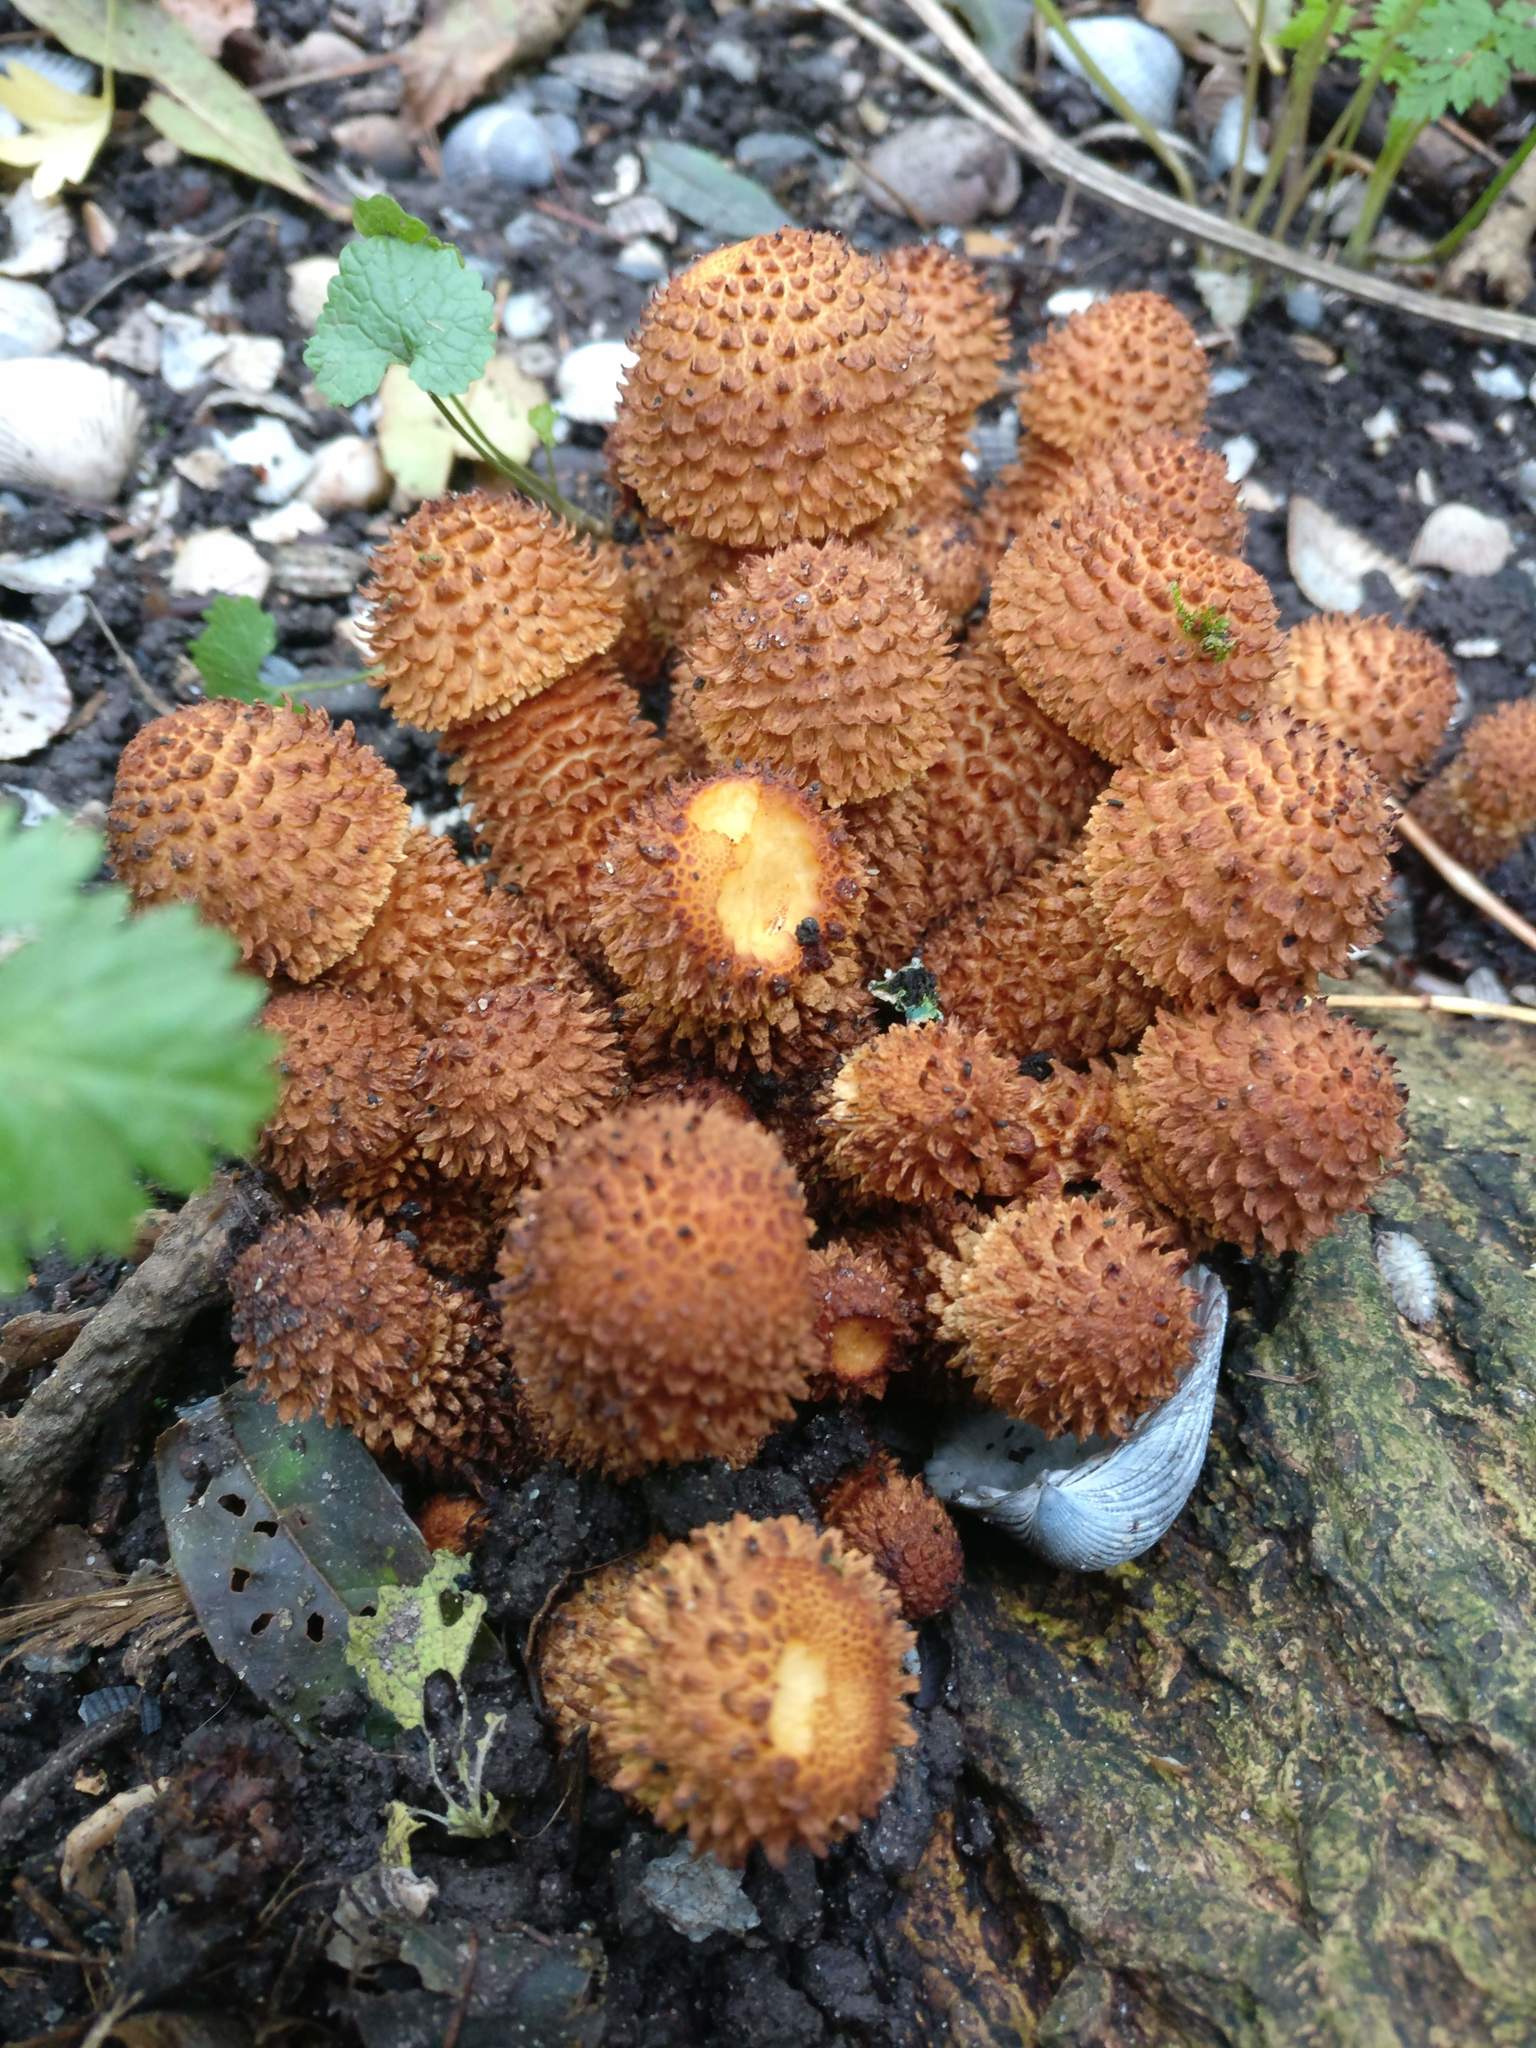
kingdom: Fungi
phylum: Basidiomycota
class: Agaricomycetes
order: Agaricales
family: Strophariaceae
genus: Pholiota
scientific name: Pholiota squarrosa
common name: Shaggy pholiota
